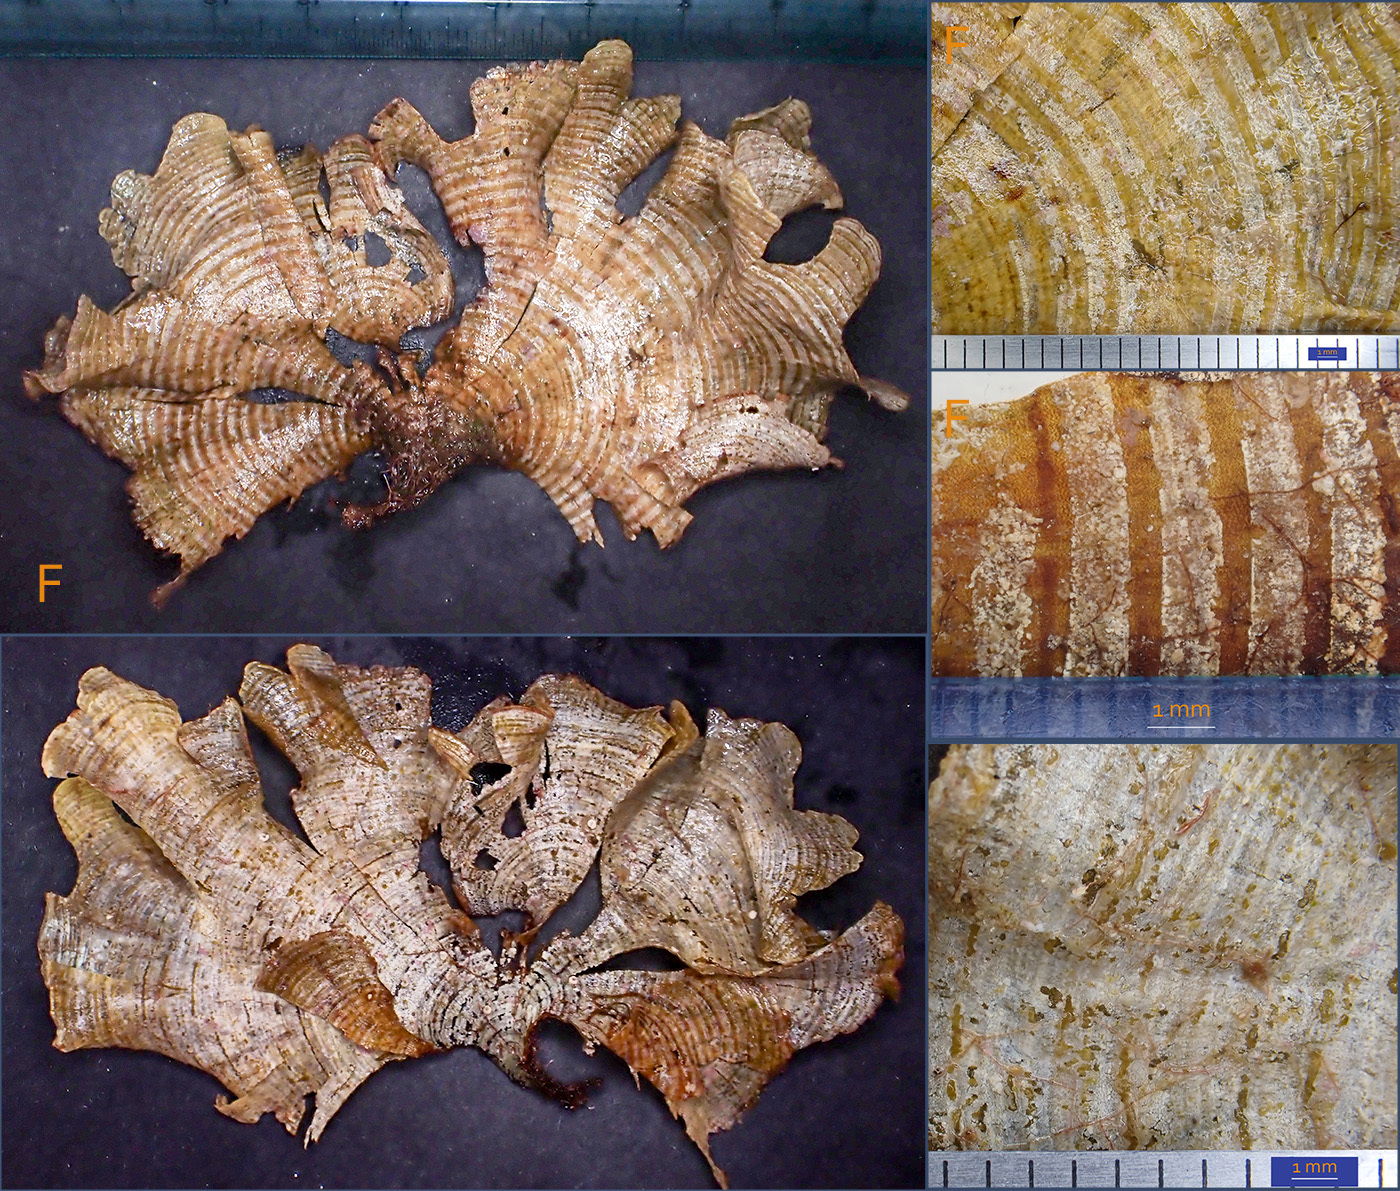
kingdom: Chromista
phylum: Ochrophyta
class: Phaeophyceae
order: Dictyotales
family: Dictyotaceae
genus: Padina
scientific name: Padina
